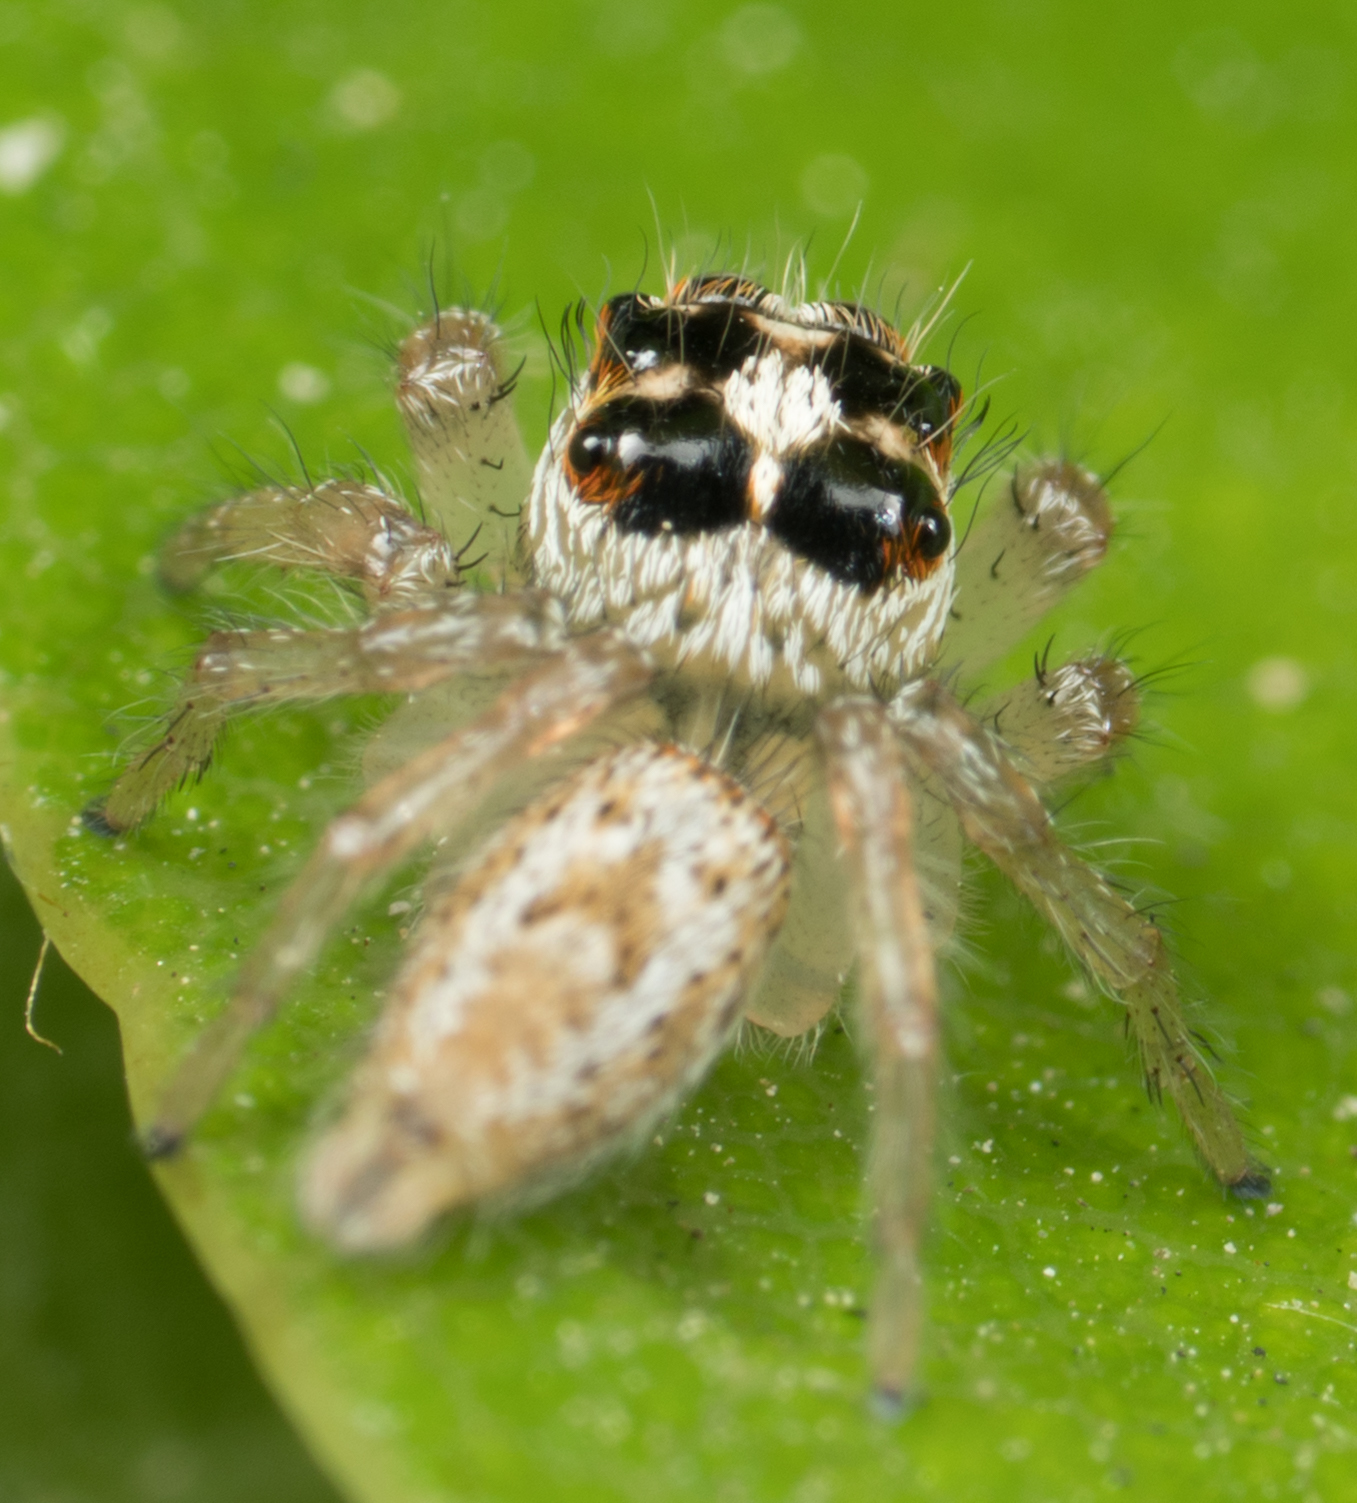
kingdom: Animalia
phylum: Arthropoda
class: Arachnida
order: Araneae
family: Salticidae
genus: Colonus
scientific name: Colonus hesperus
